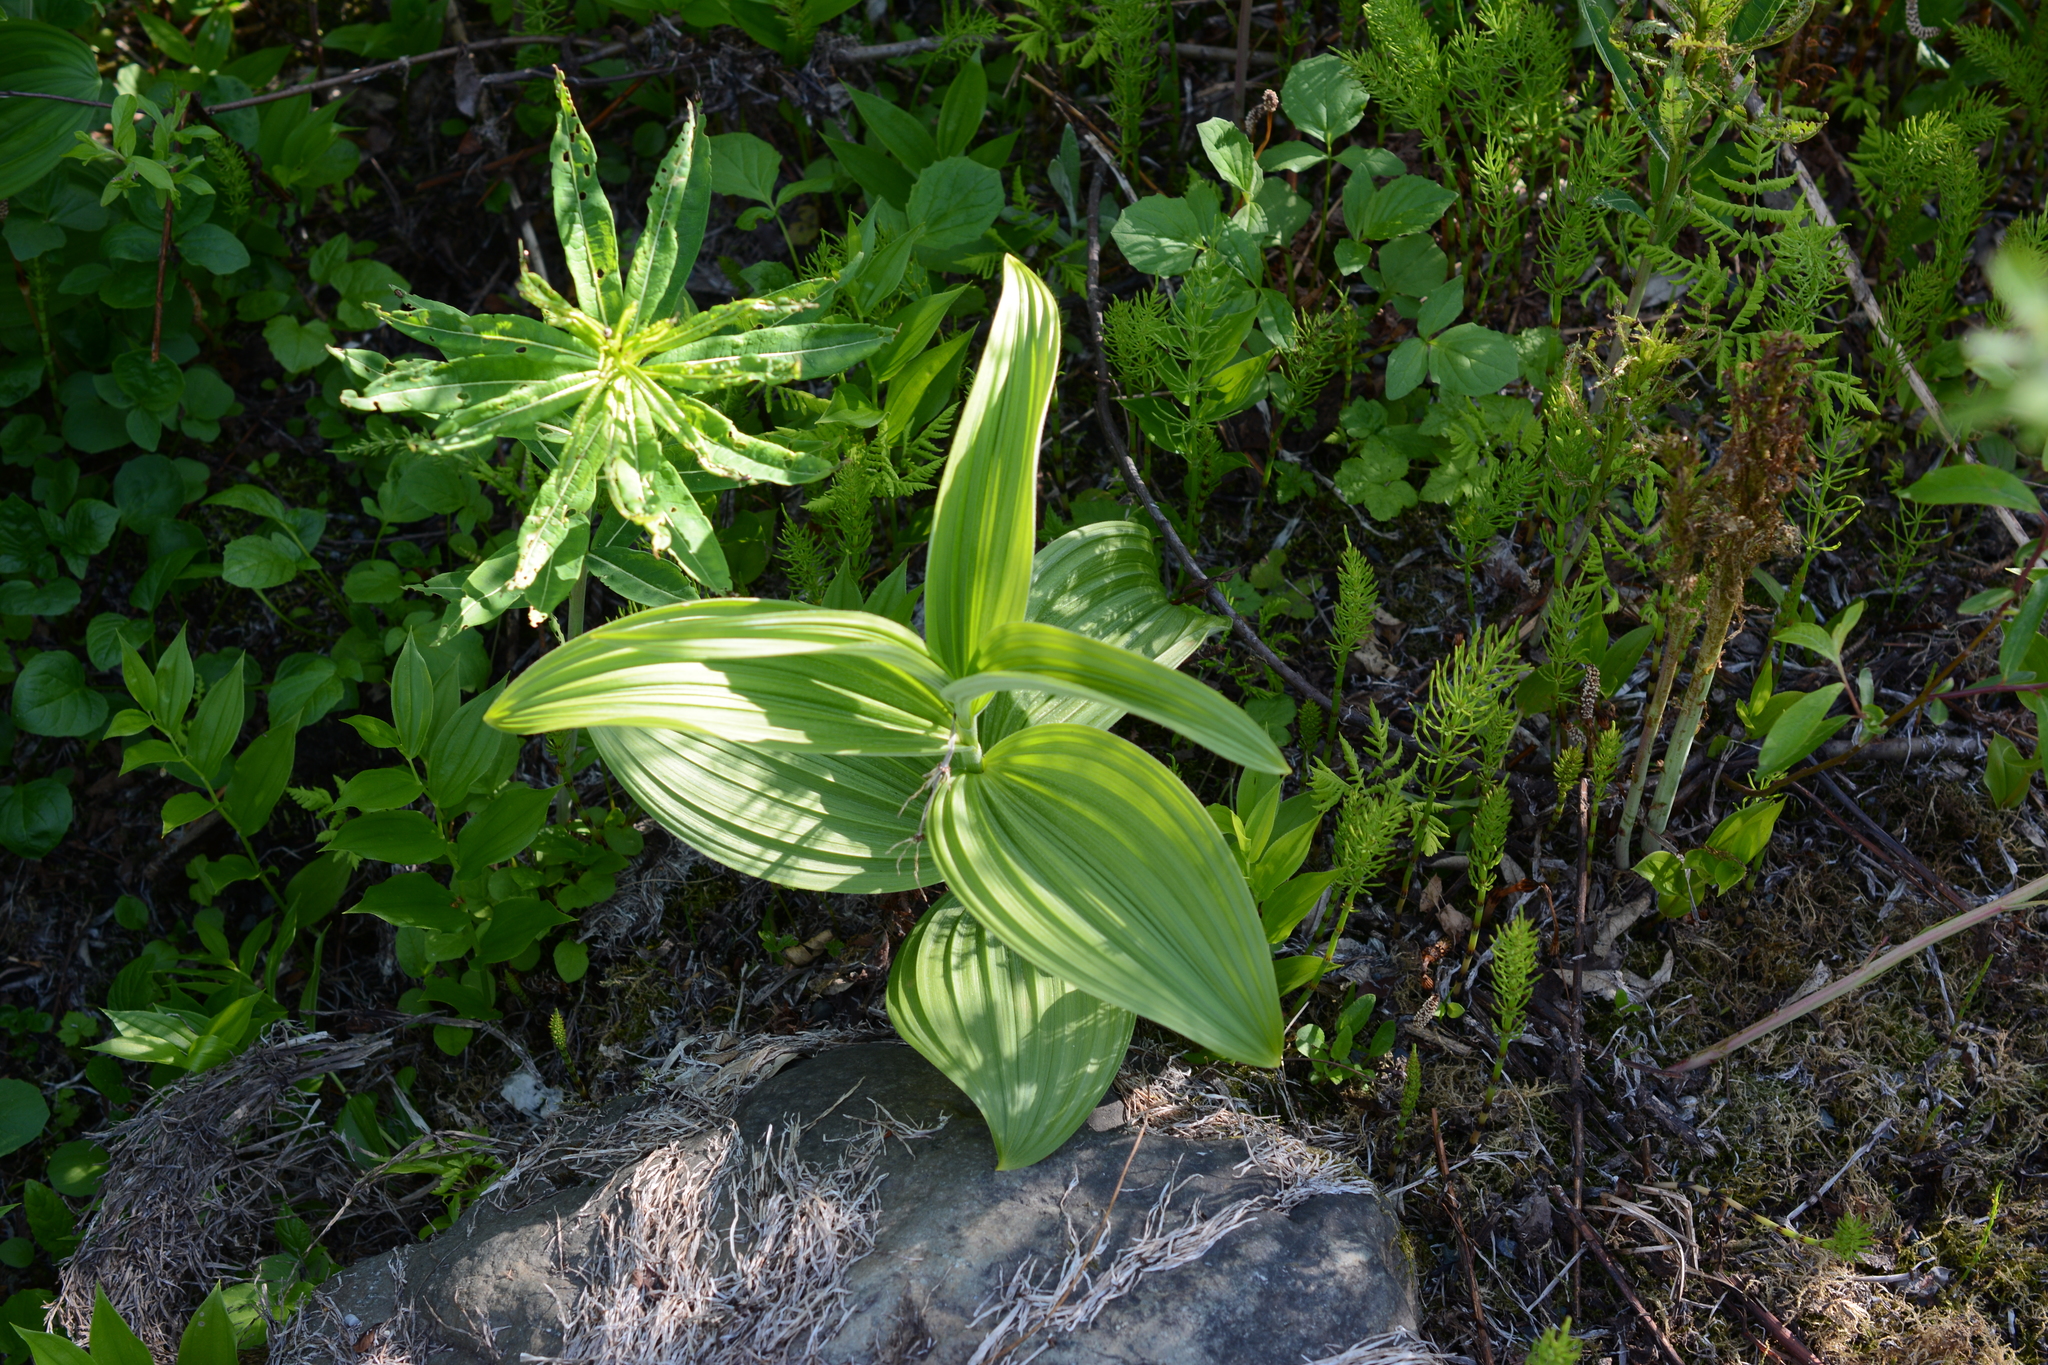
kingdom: Plantae
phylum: Tracheophyta
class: Liliopsida
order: Liliales
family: Melanthiaceae
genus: Veratrum
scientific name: Veratrum viride
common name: American false hellebore
